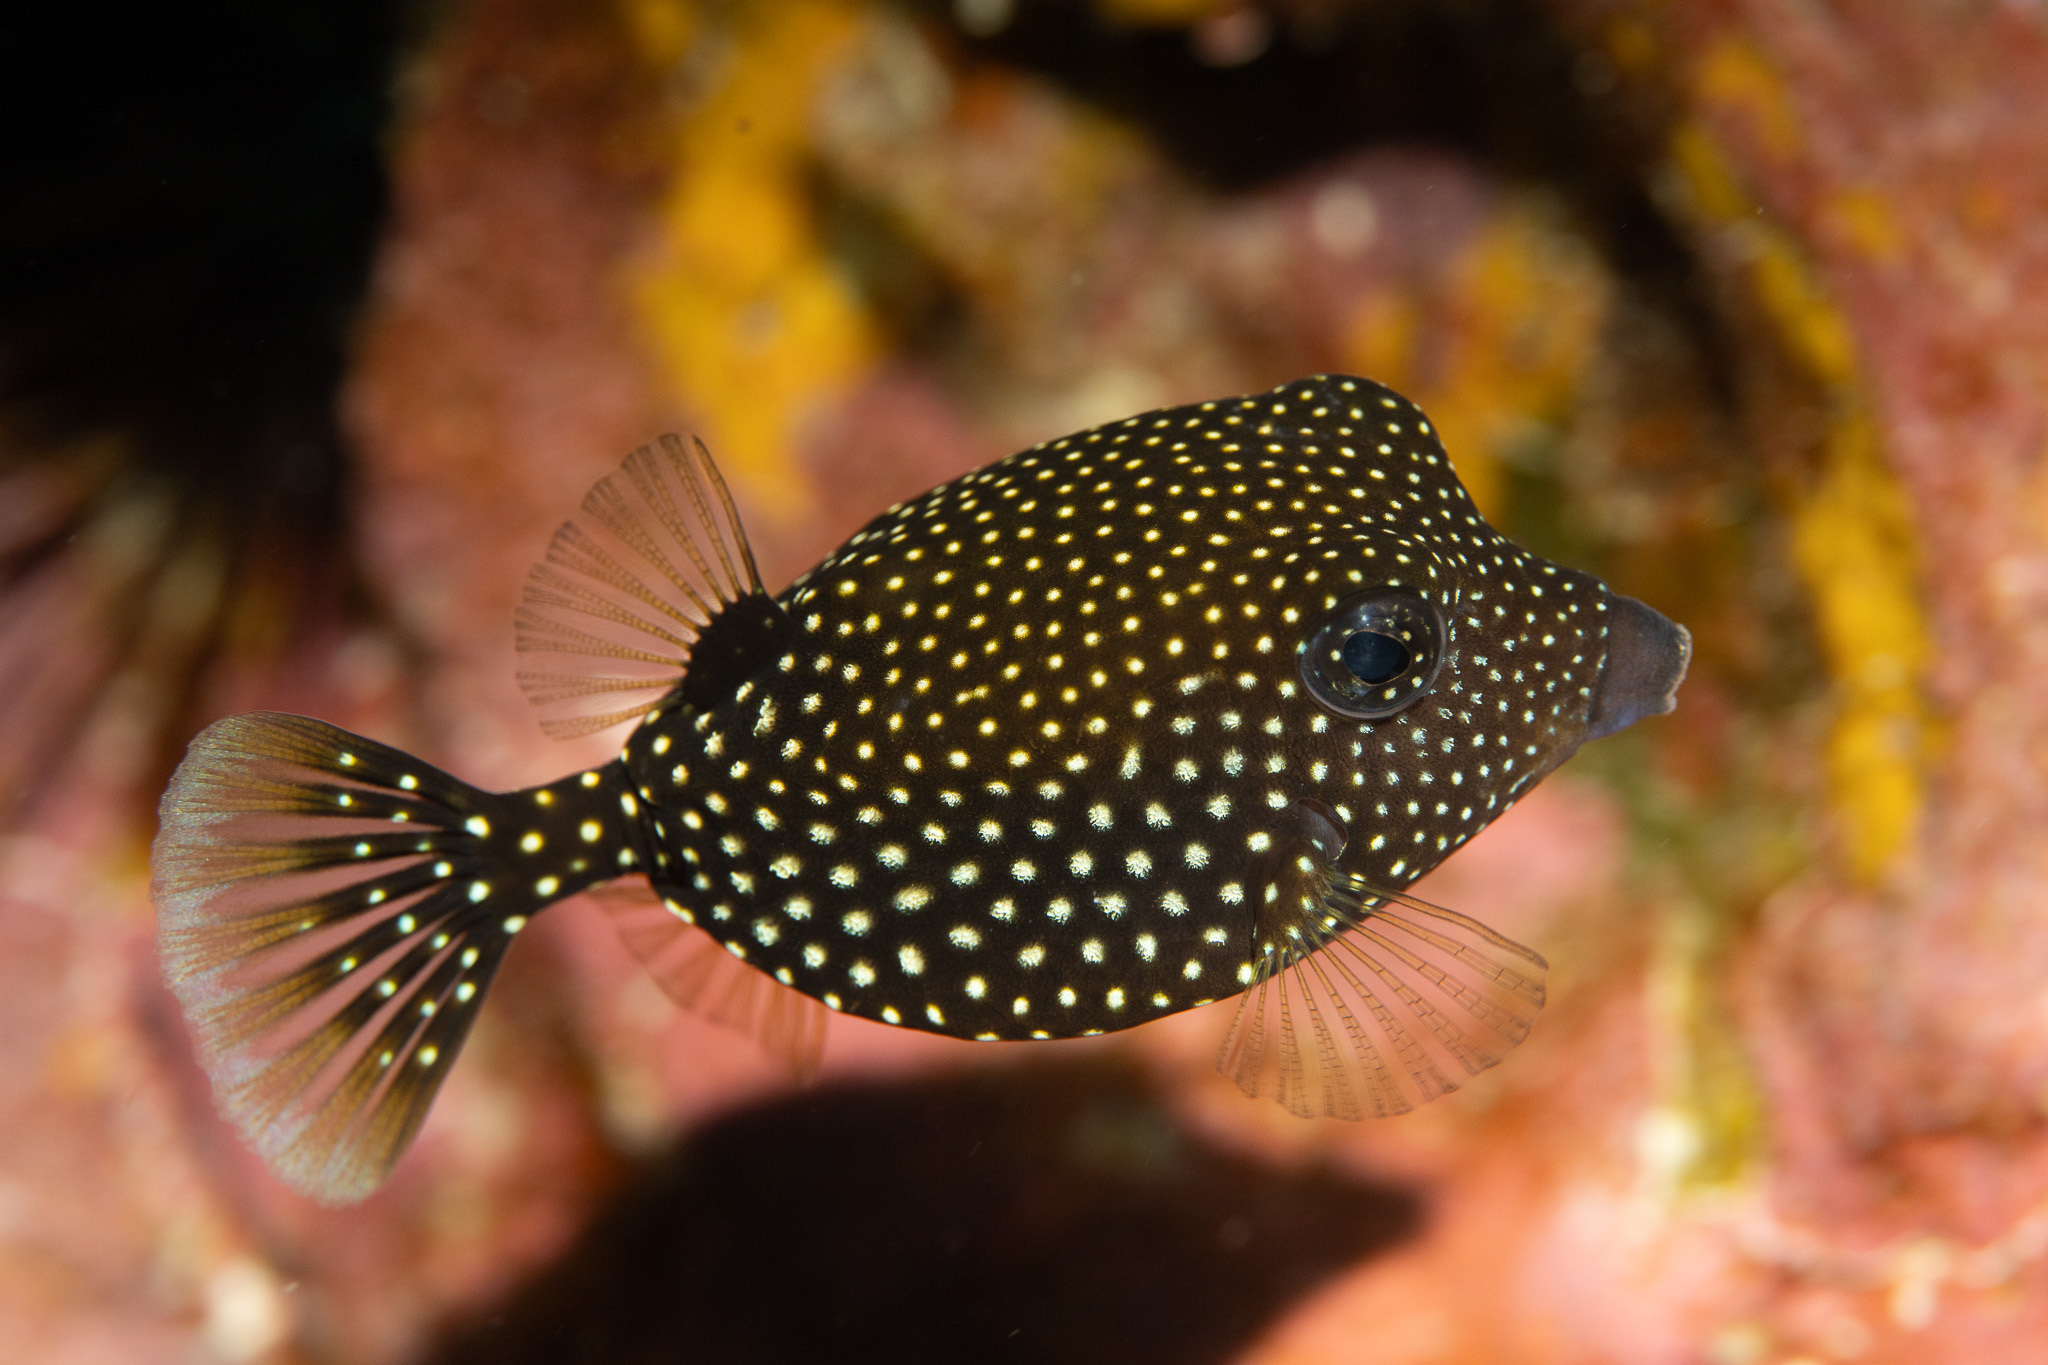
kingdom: Animalia
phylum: Chordata
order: Tetraodontiformes
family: Ostraciidae
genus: Ostracion
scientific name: Ostracion meleagris
